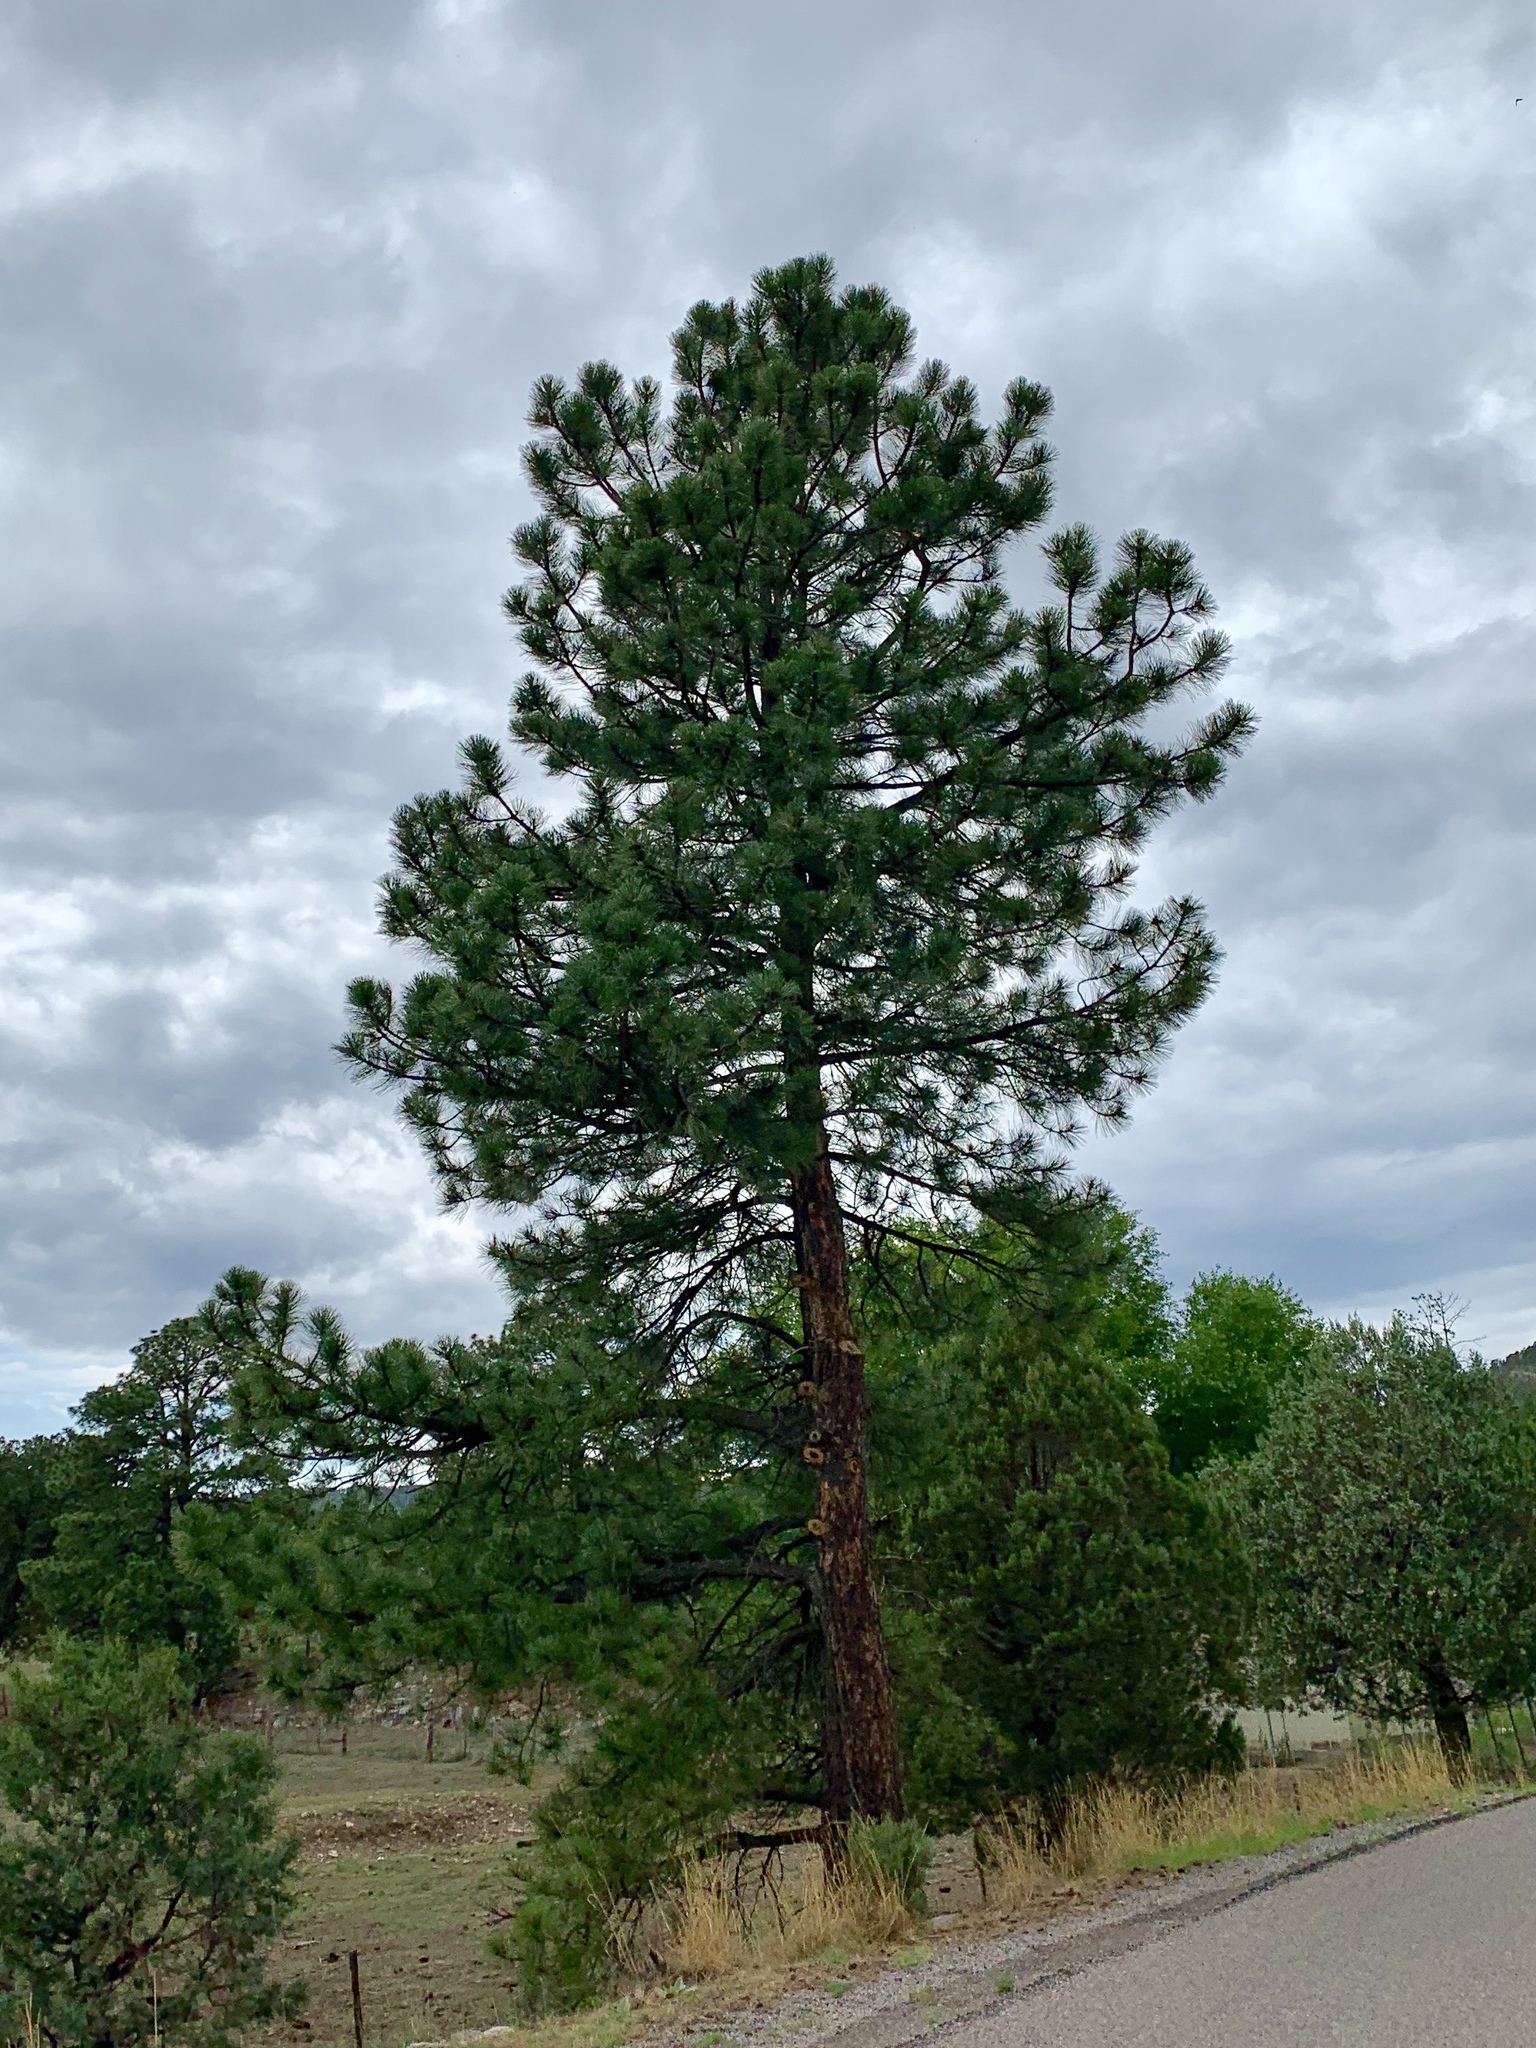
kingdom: Plantae
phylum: Tracheophyta
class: Pinopsida
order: Pinales
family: Pinaceae
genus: Pinus
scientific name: Pinus ponderosa
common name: Western yellow-pine
